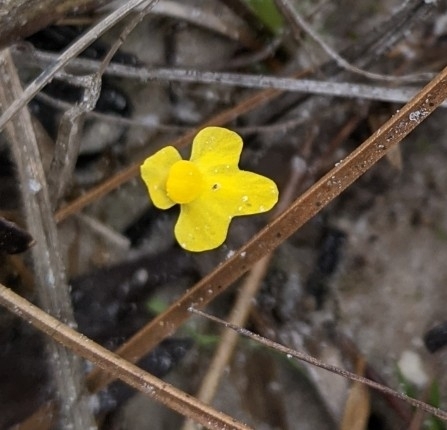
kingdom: Plantae
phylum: Tracheophyta
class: Magnoliopsida
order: Lamiales
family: Lentibulariaceae
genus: Utricularia
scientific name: Utricularia subulata
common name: Tiny bladderwort
